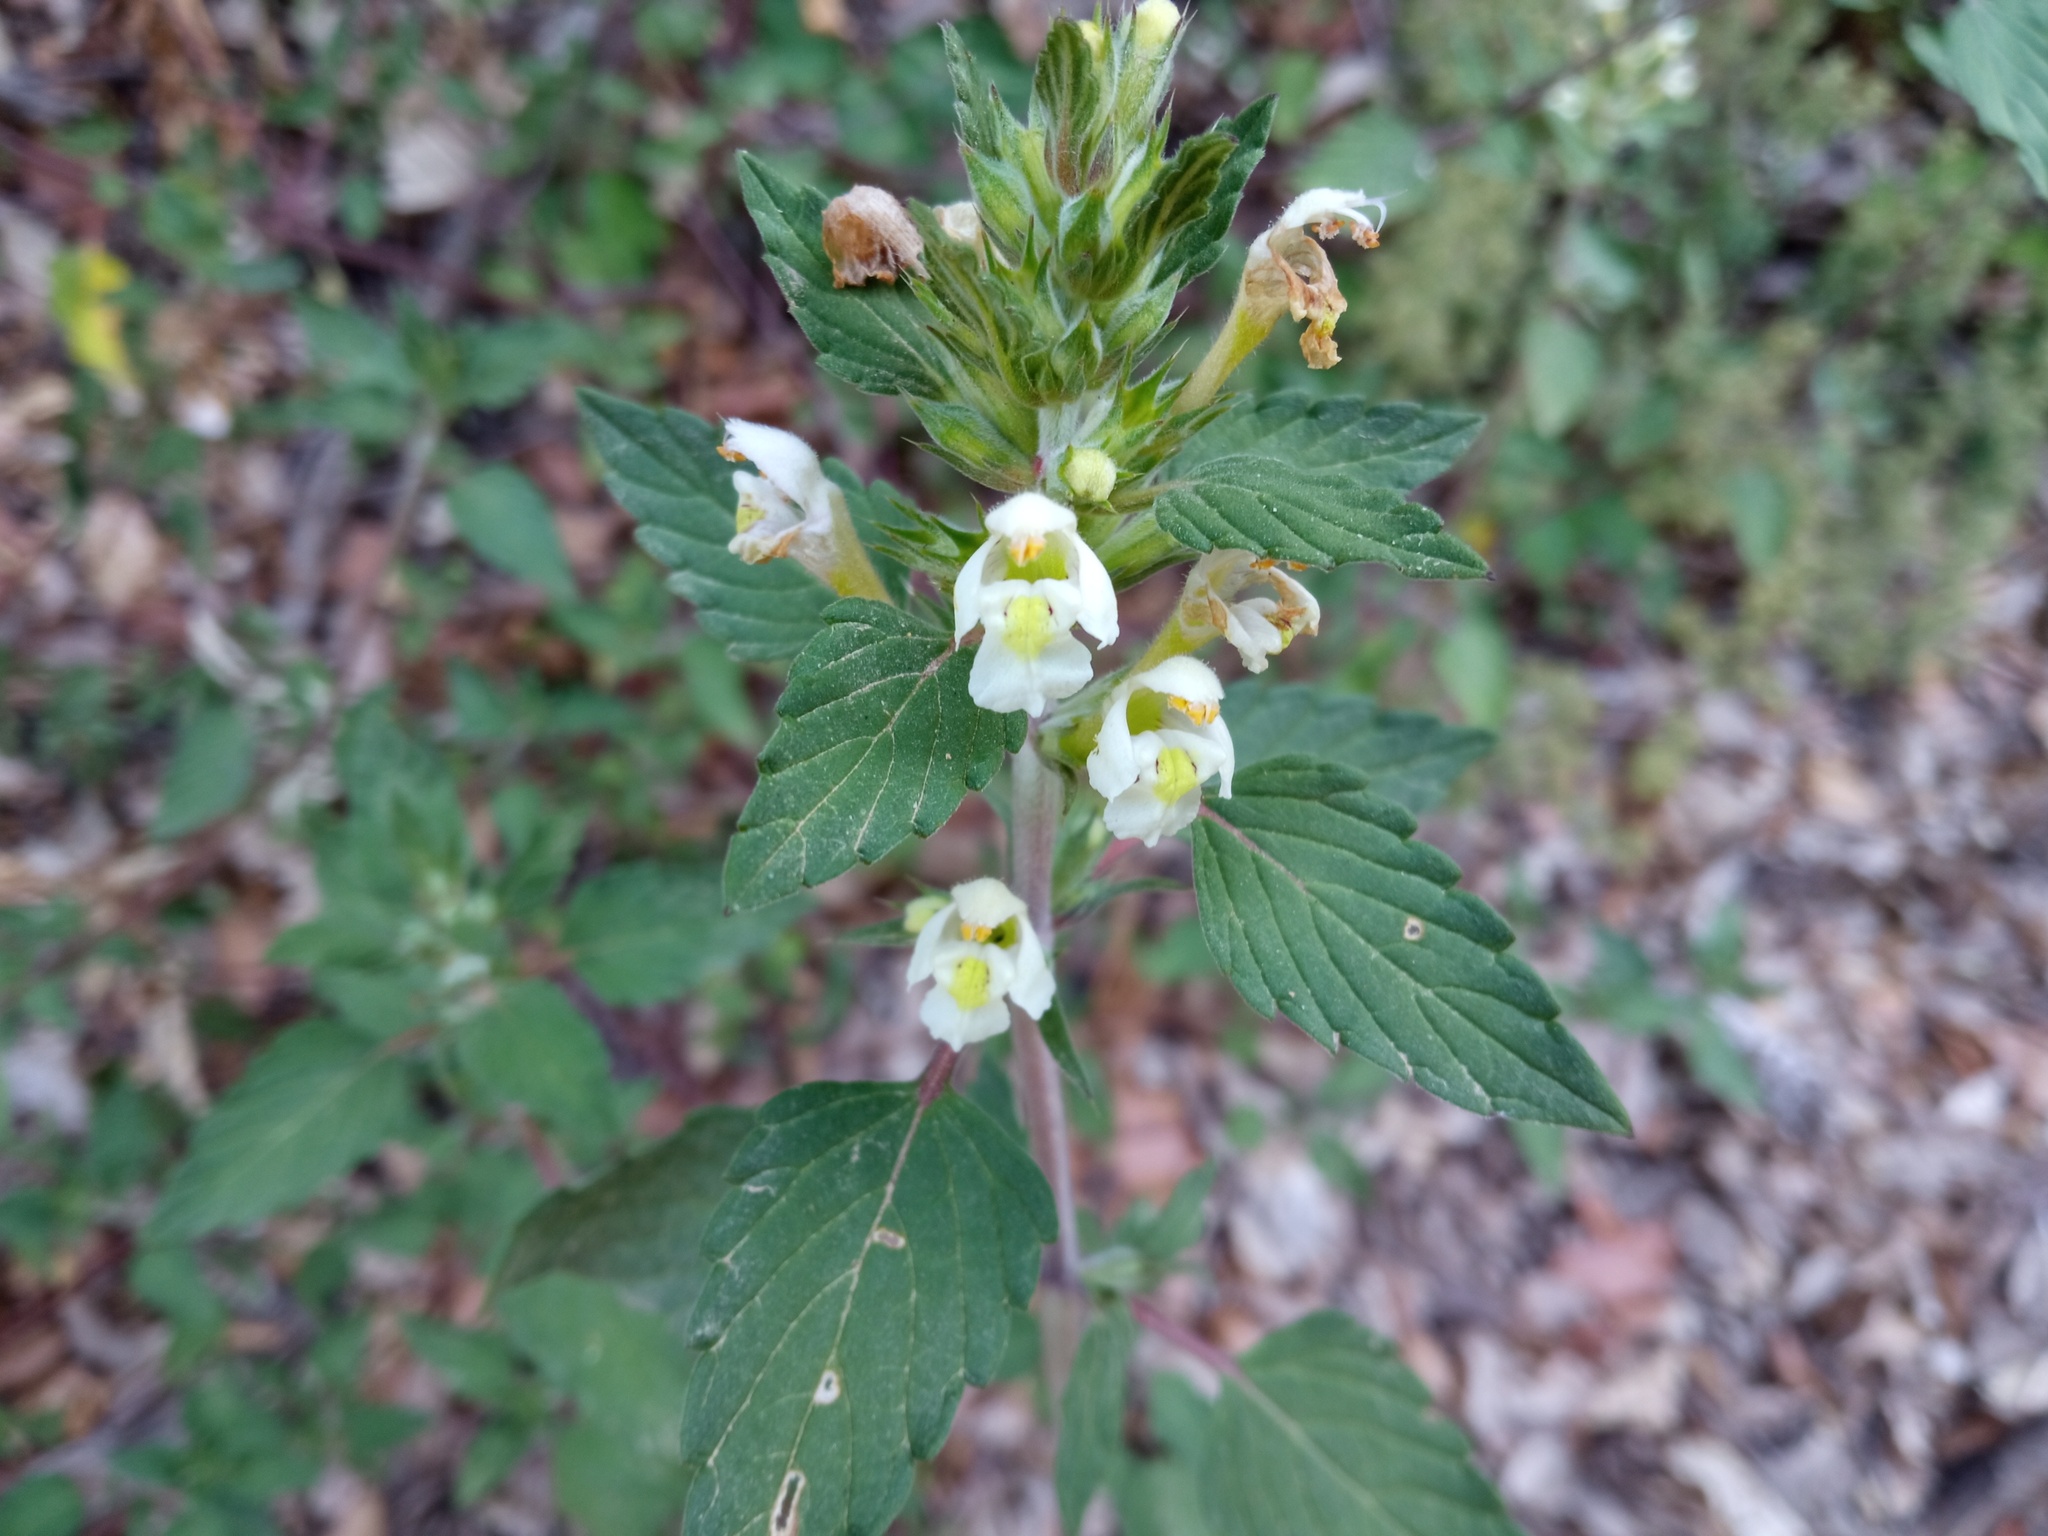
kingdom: Plantae
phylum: Tracheophyta
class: Magnoliopsida
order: Lamiales
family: Lamiaceae
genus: Galeopsis
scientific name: Galeopsis segetum
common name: Downy hemp-nettle
